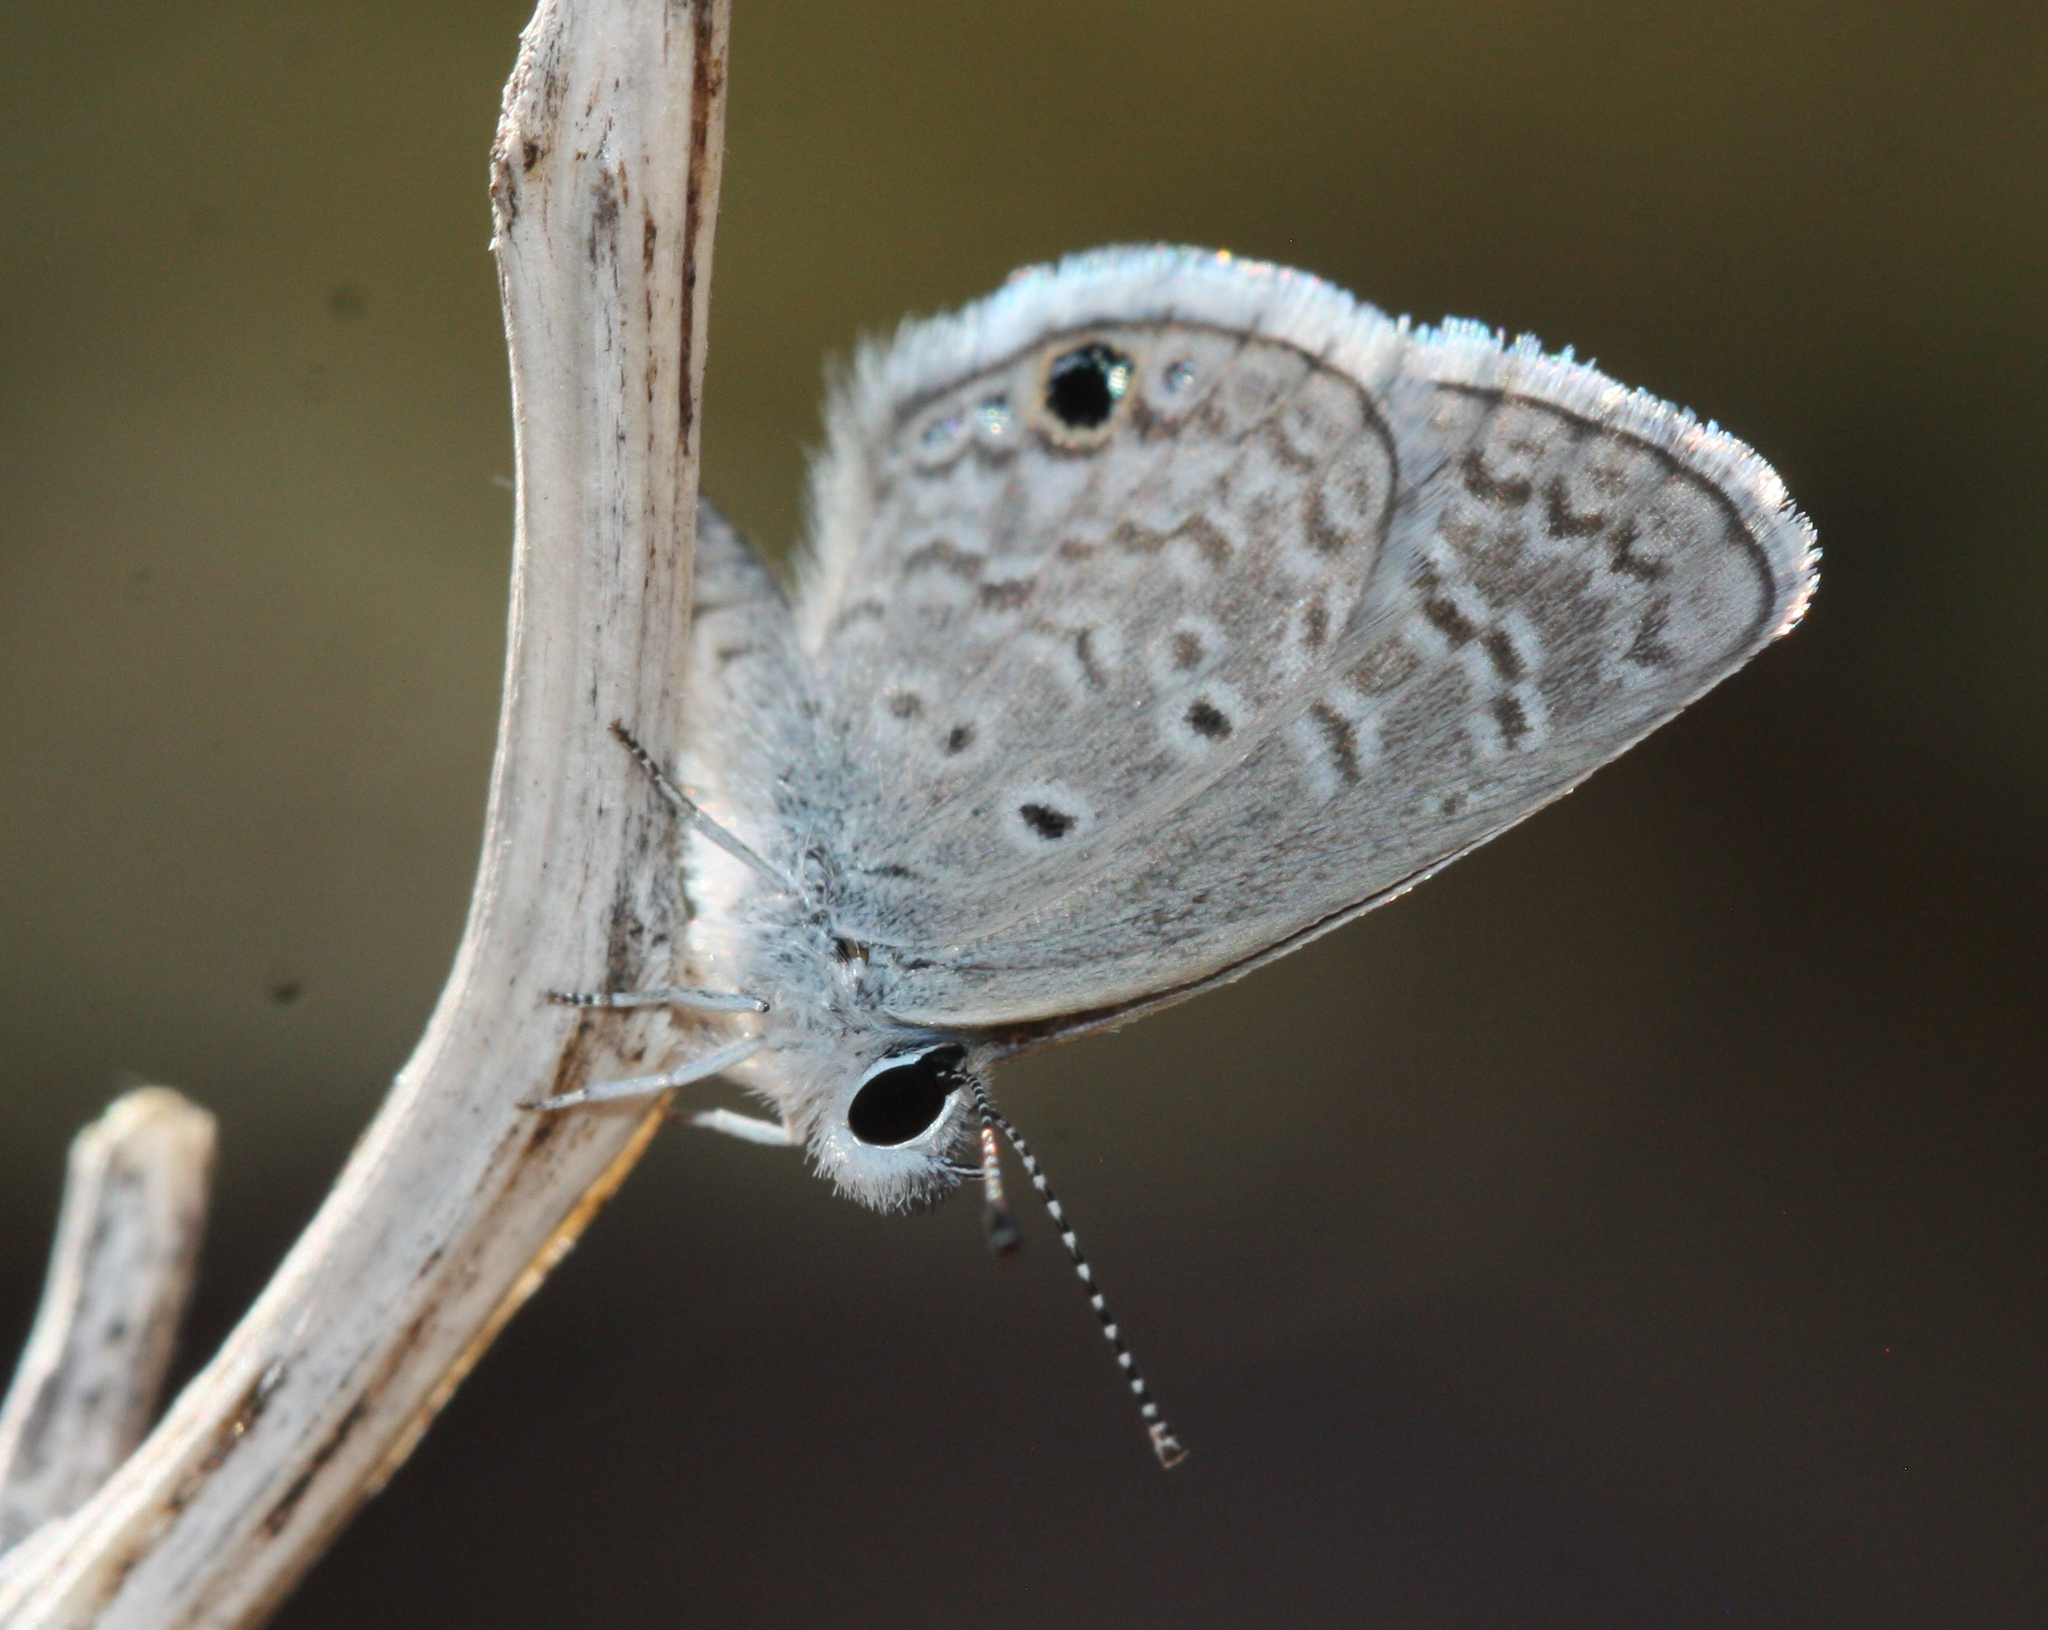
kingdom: Animalia
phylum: Arthropoda
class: Insecta
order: Lepidoptera
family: Lycaenidae
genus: Hemiargus
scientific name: Hemiargus ceraunus
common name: Ceraunus blue
